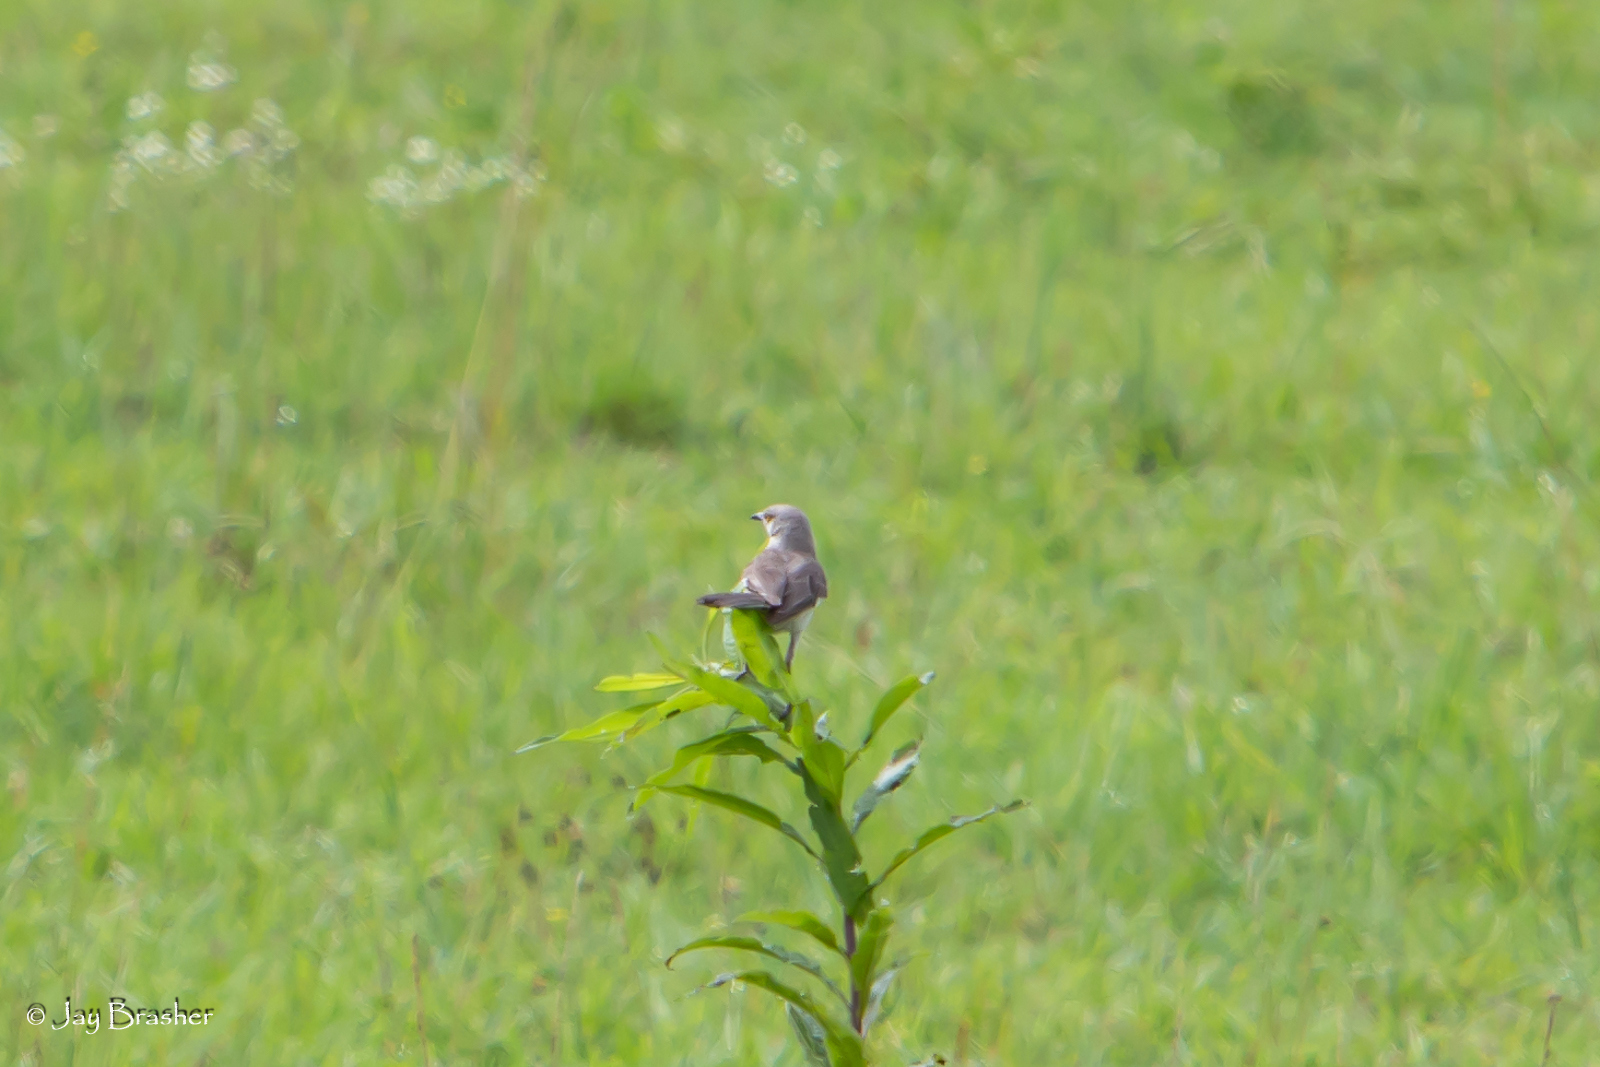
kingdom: Animalia
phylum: Chordata
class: Aves
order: Passeriformes
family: Mimidae
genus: Mimus
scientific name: Mimus polyglottos
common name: Northern mockingbird
